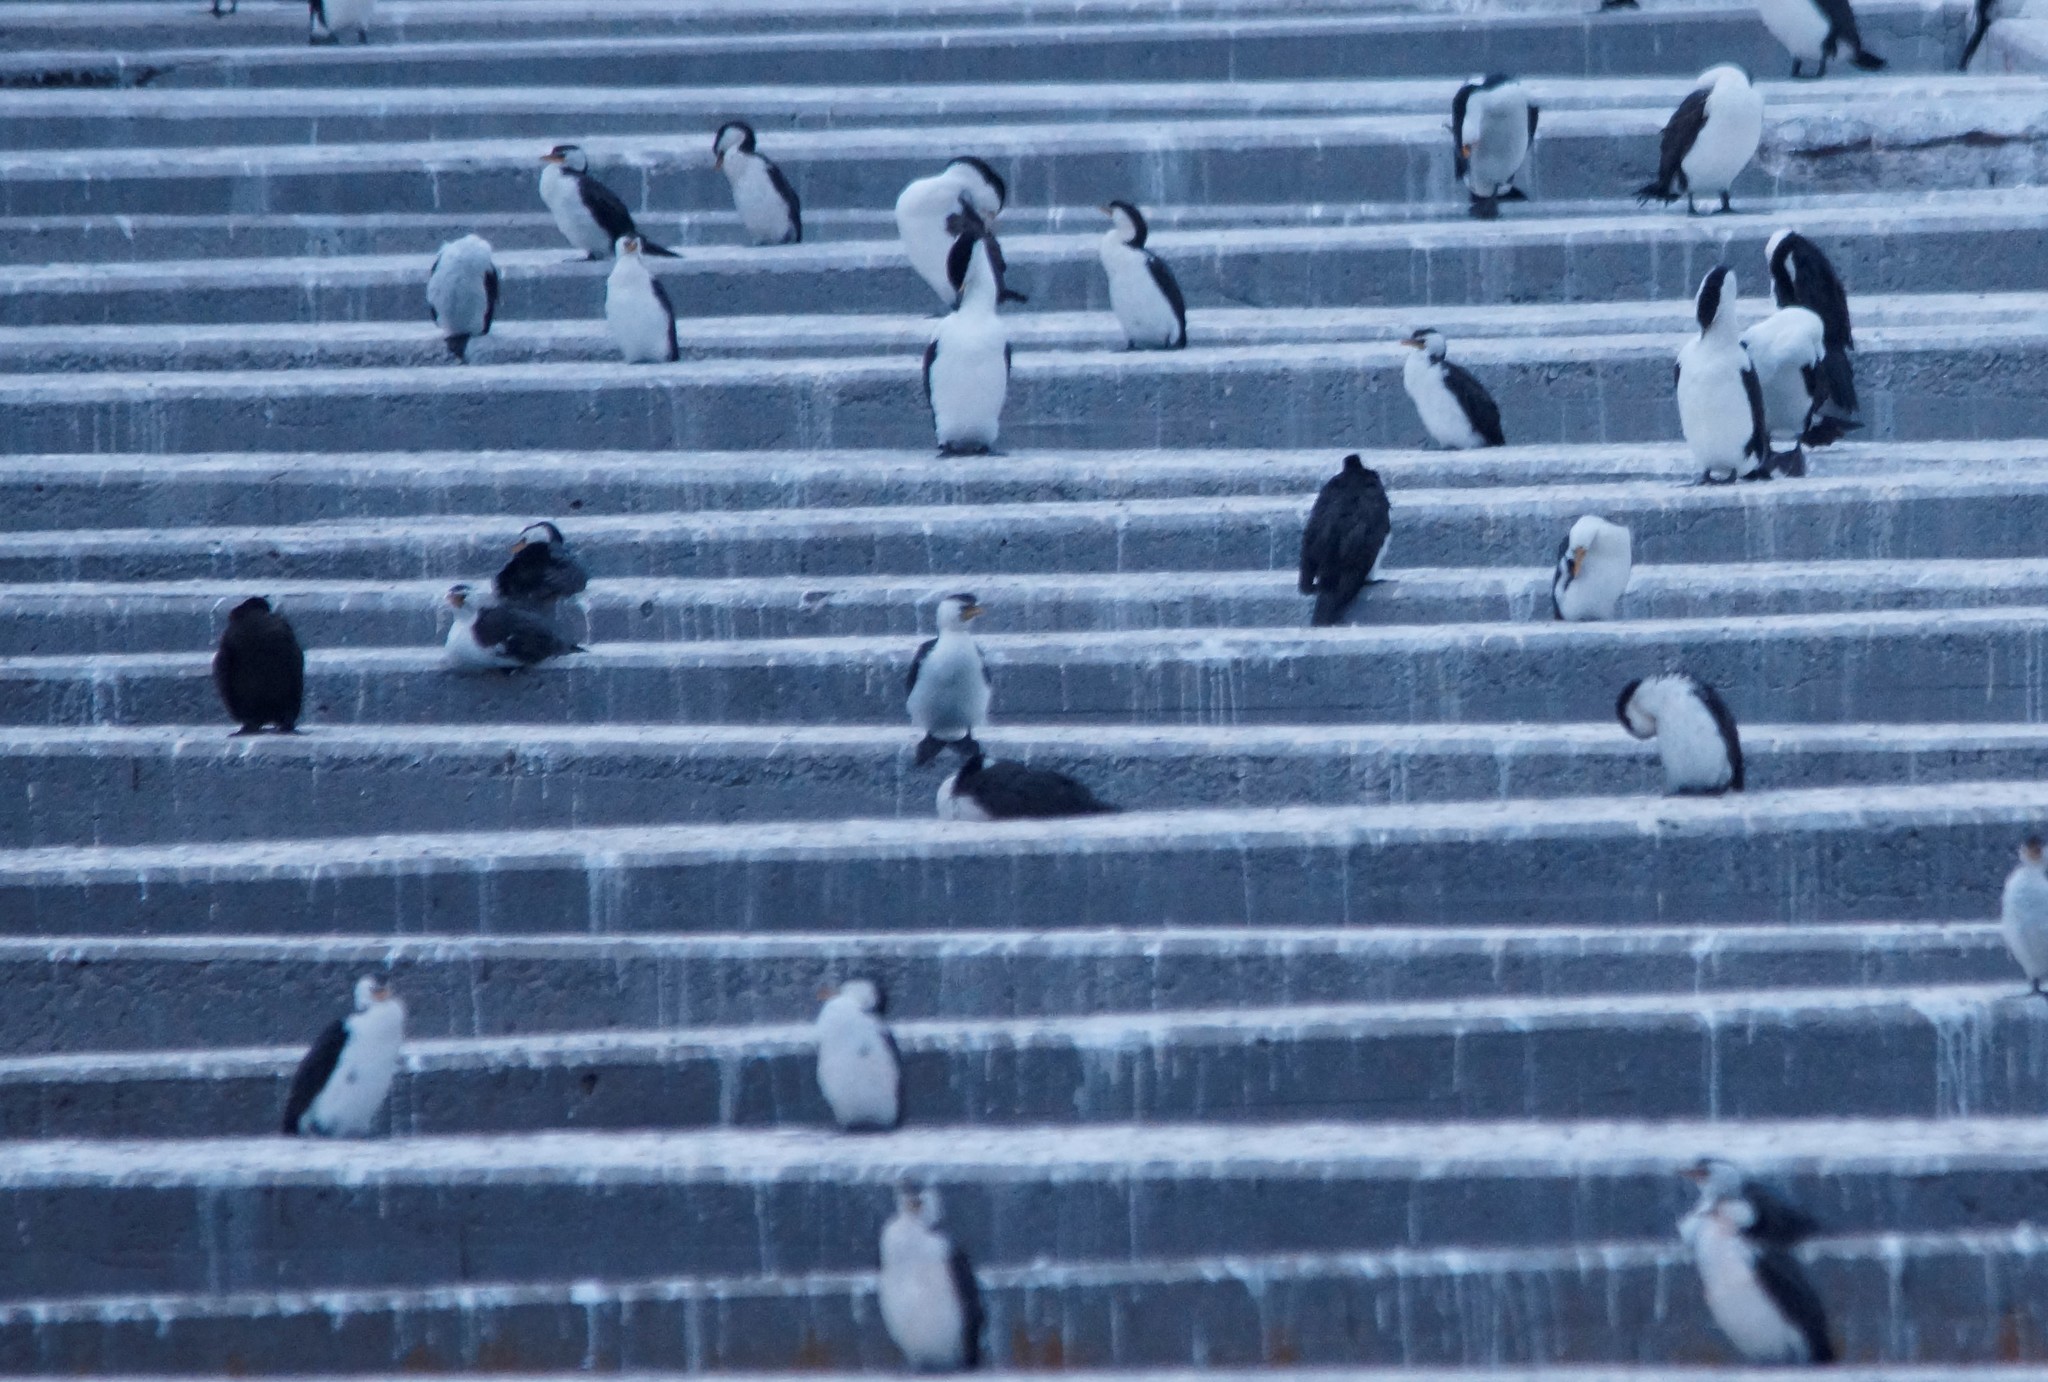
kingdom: Animalia
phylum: Chordata
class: Aves
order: Suliformes
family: Phalacrocoracidae
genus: Microcarbo
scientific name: Microcarbo melanoleucos
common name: Little pied cormorant
